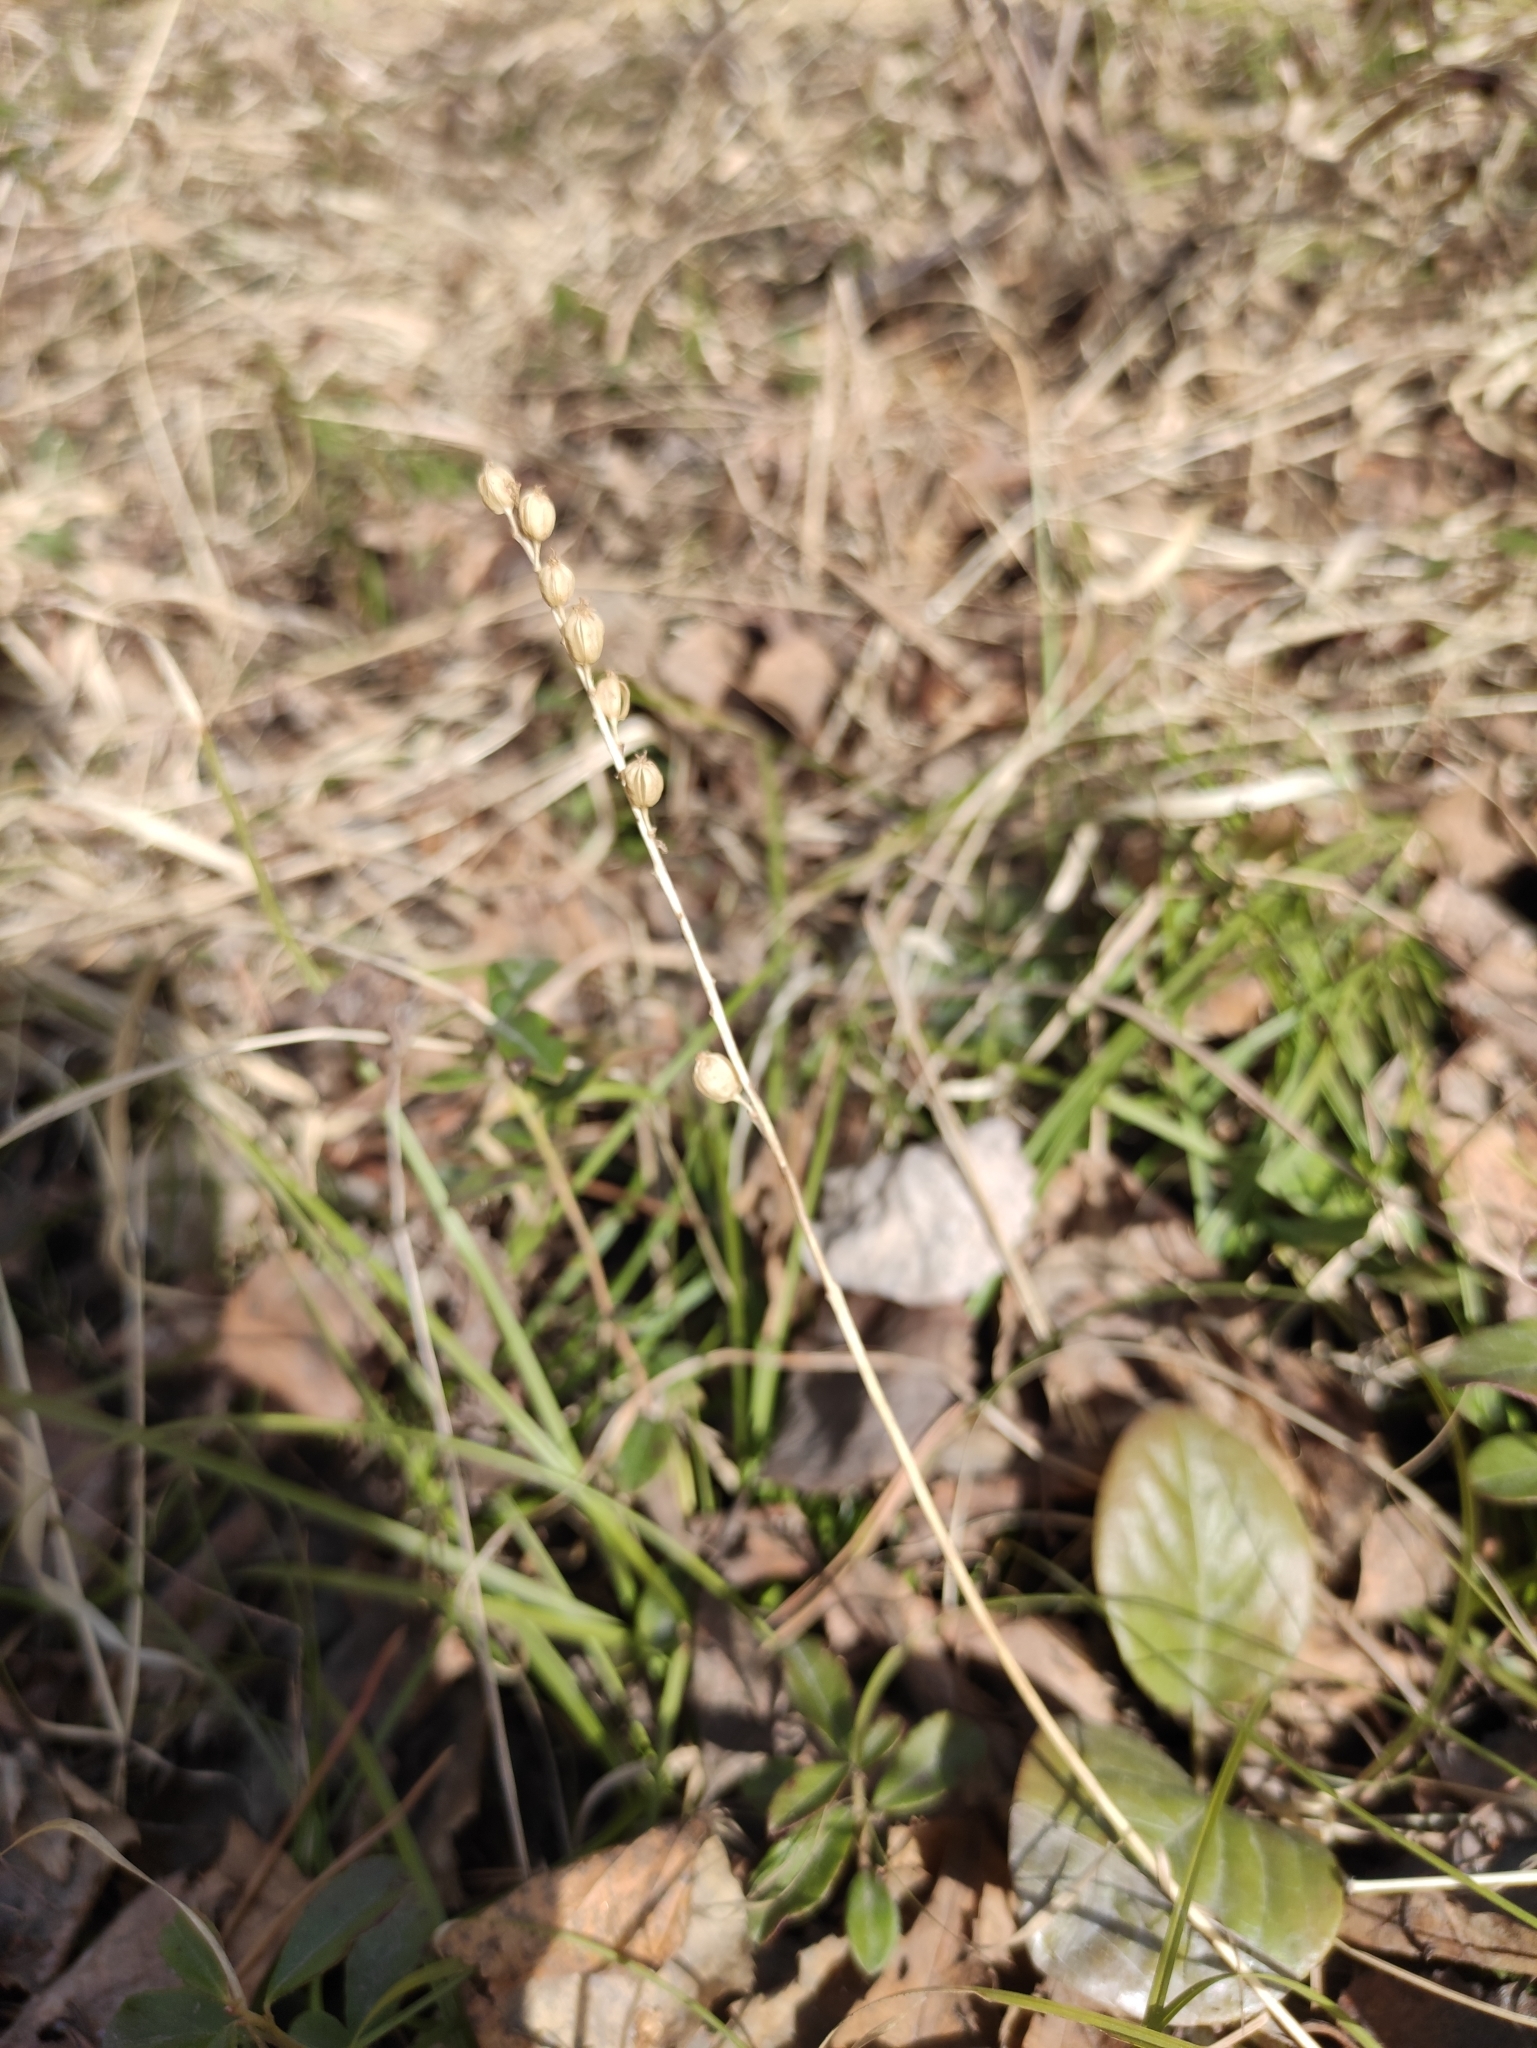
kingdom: Plantae
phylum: Tracheophyta
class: Liliopsida
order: Asparagales
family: Orchidaceae
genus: Malaxis
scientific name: Malaxis monophyllos
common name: White adder's-mouth
